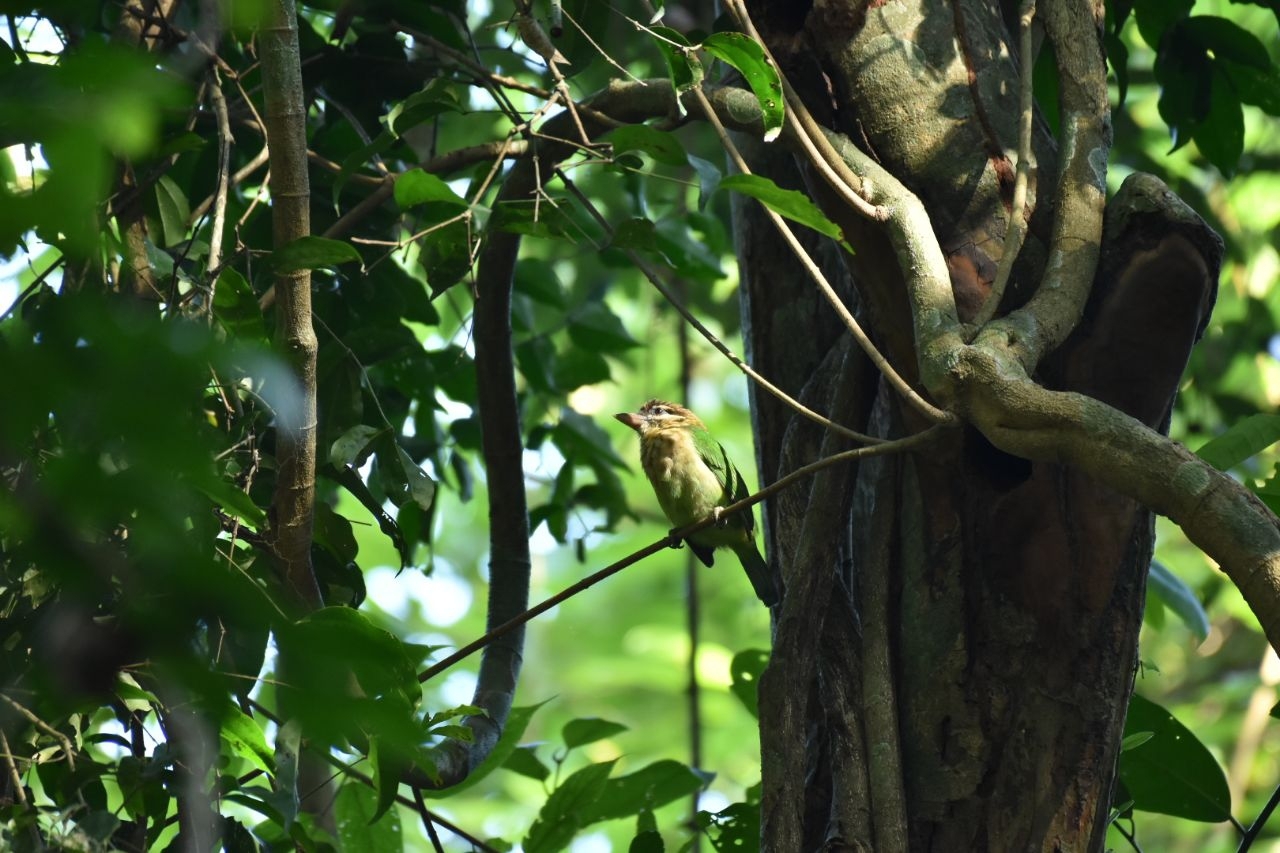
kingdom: Animalia
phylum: Chordata
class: Aves
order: Piciformes
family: Megalaimidae
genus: Psilopogon
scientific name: Psilopogon viridis
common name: White-cheeked barbet
